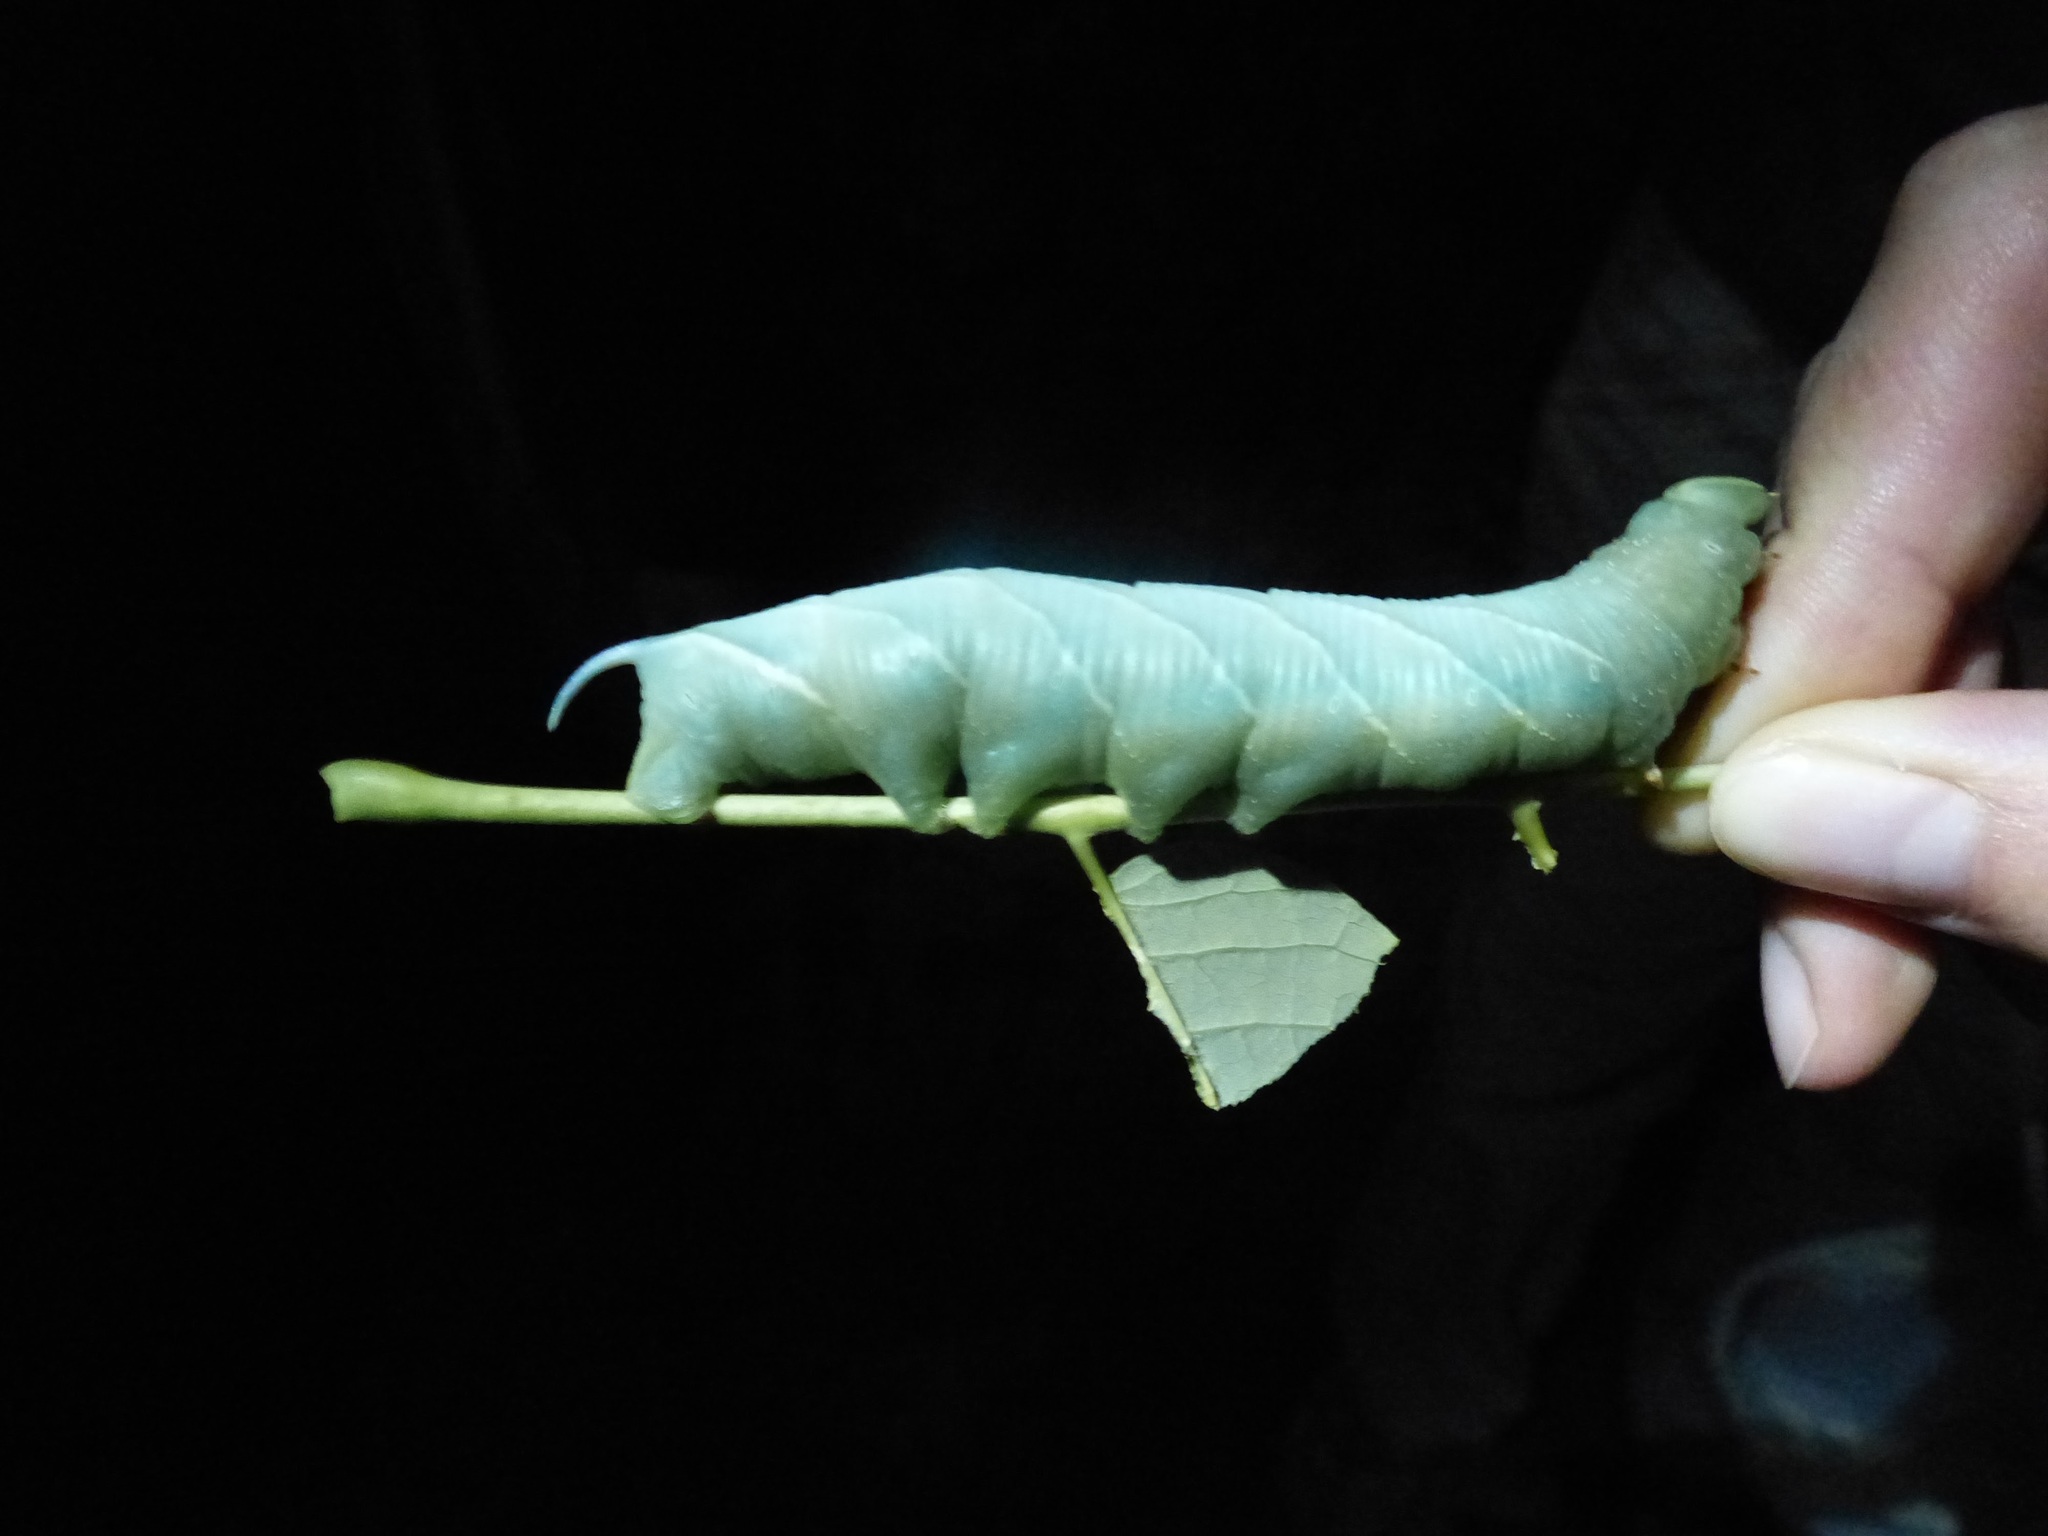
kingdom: Animalia
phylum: Arthropoda
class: Insecta
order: Lepidoptera
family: Sphingidae
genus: Sphinx
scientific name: Sphinx chersis
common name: Great ash sphinx
